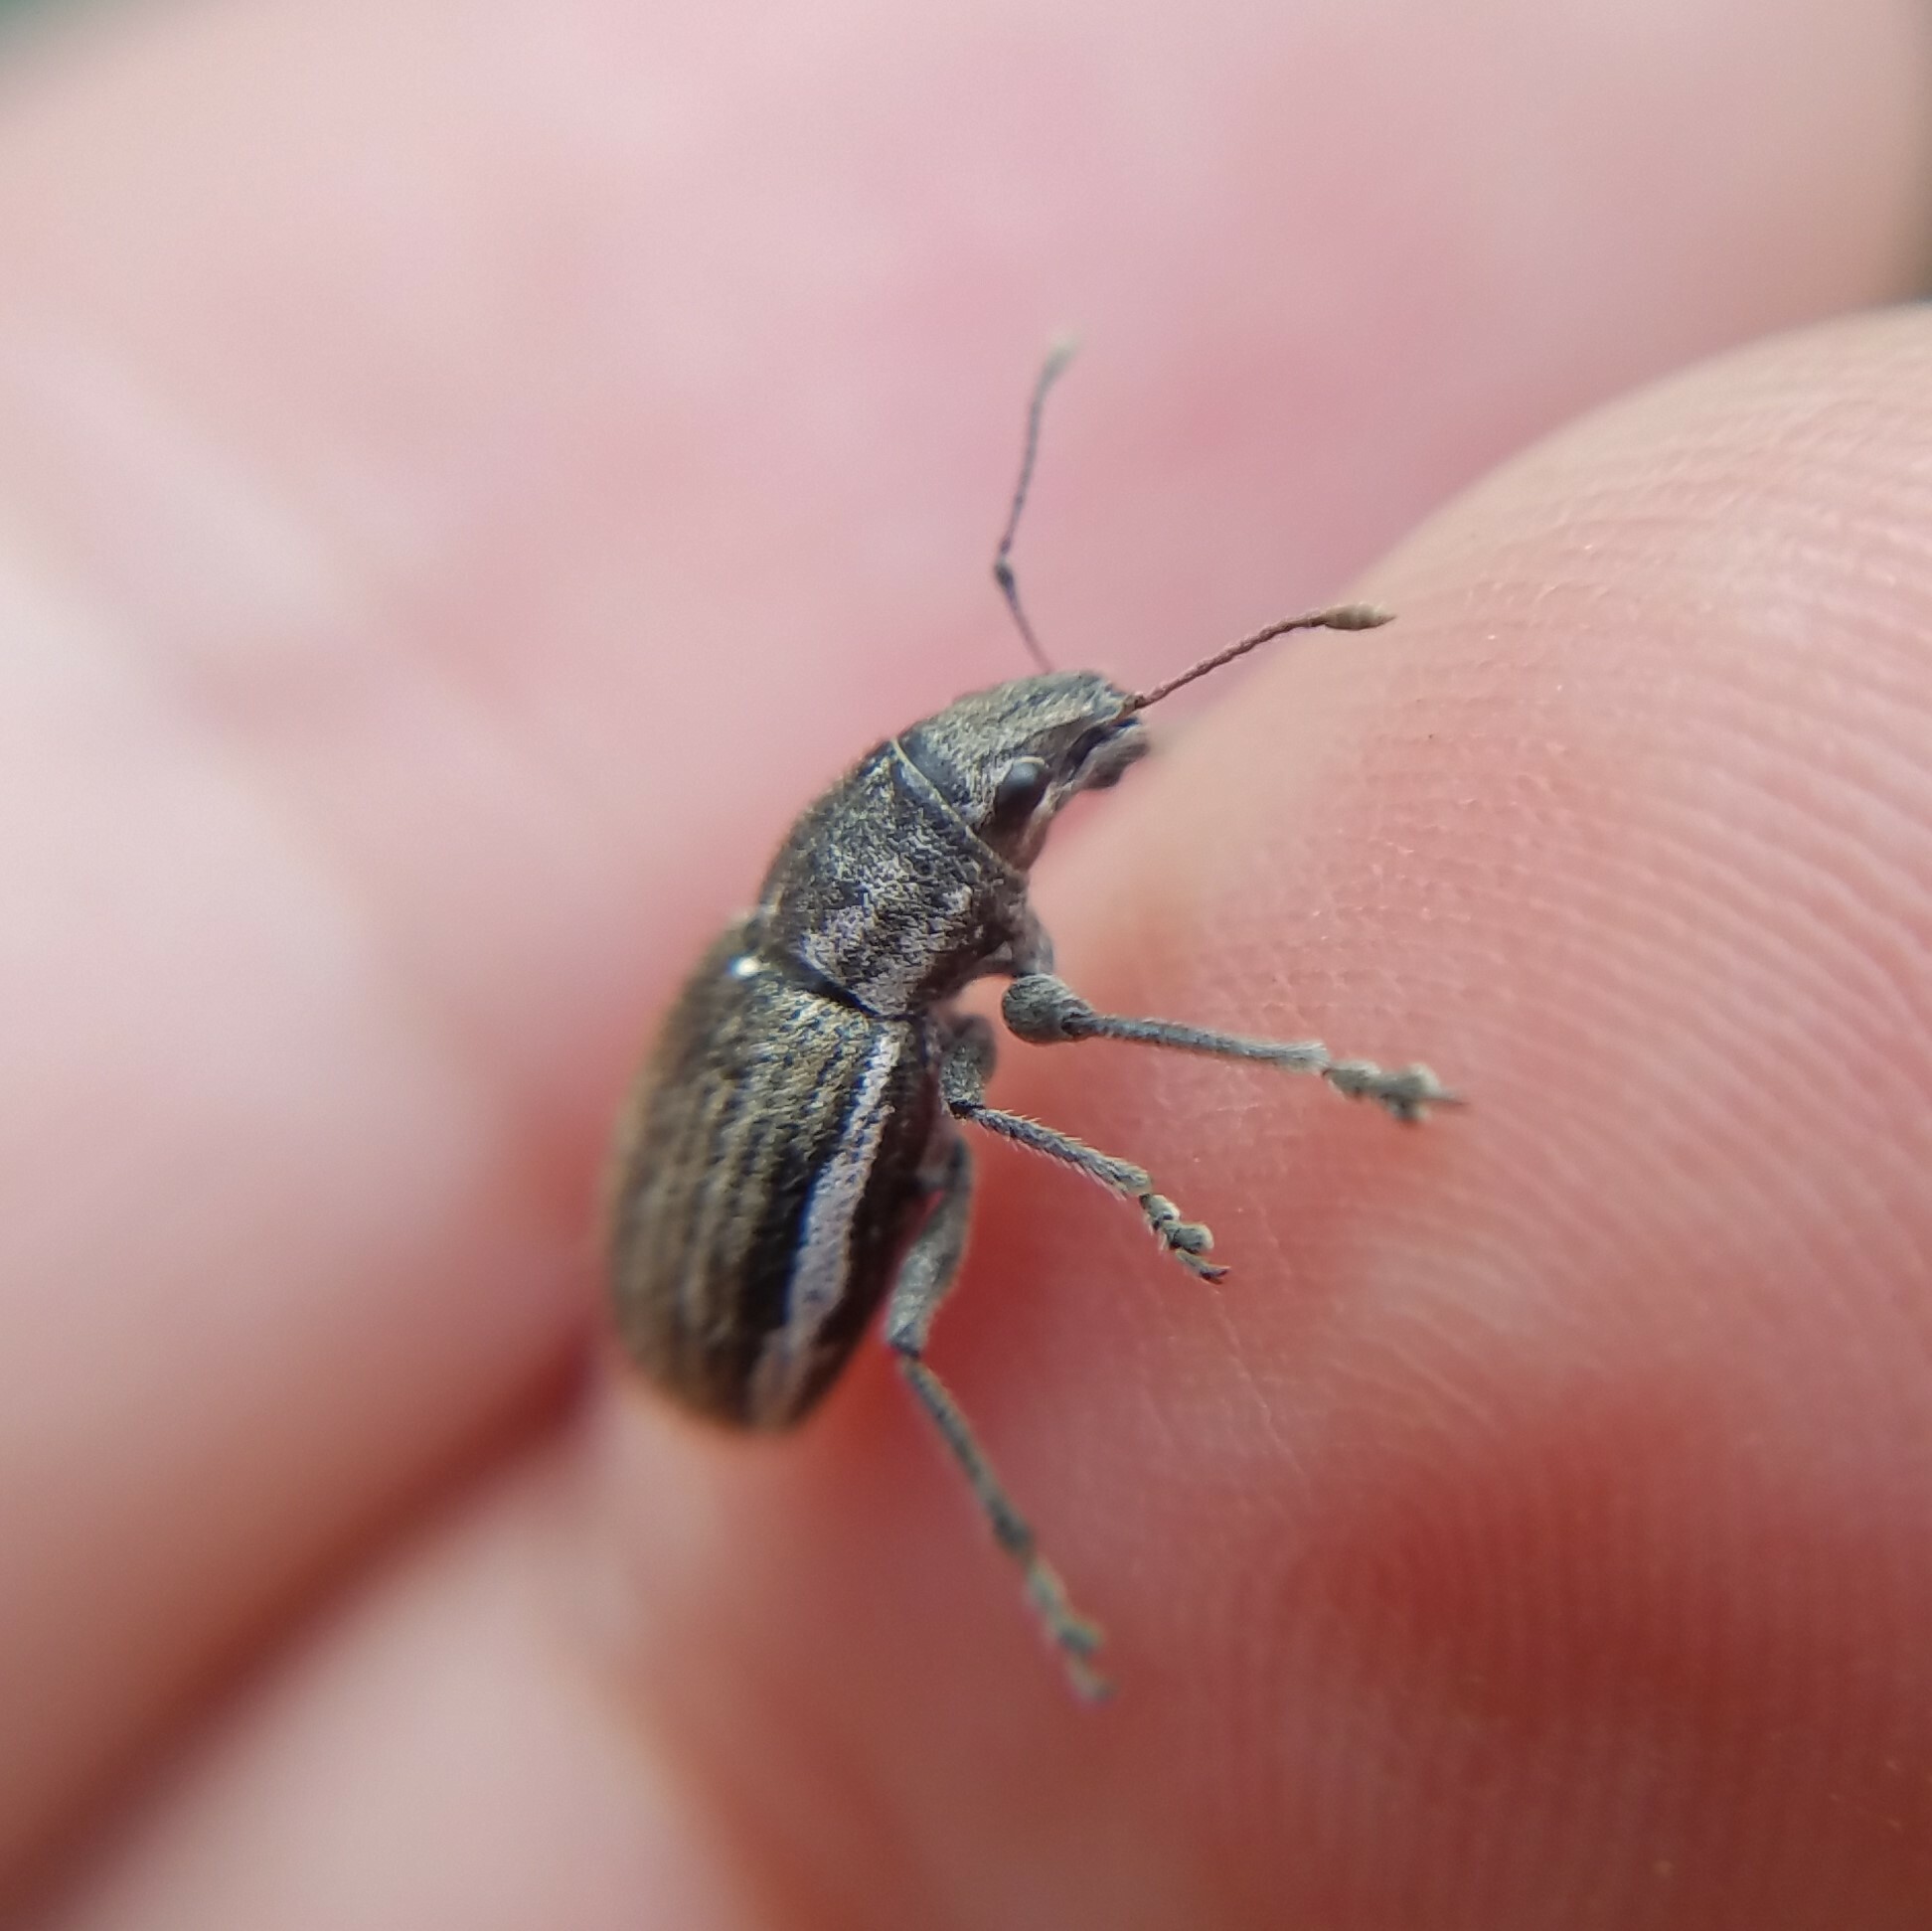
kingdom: Animalia
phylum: Arthropoda
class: Insecta
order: Coleoptera
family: Curculionidae
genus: Naupactus
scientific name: Naupactus leucoloma
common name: Whitefringed beetle
